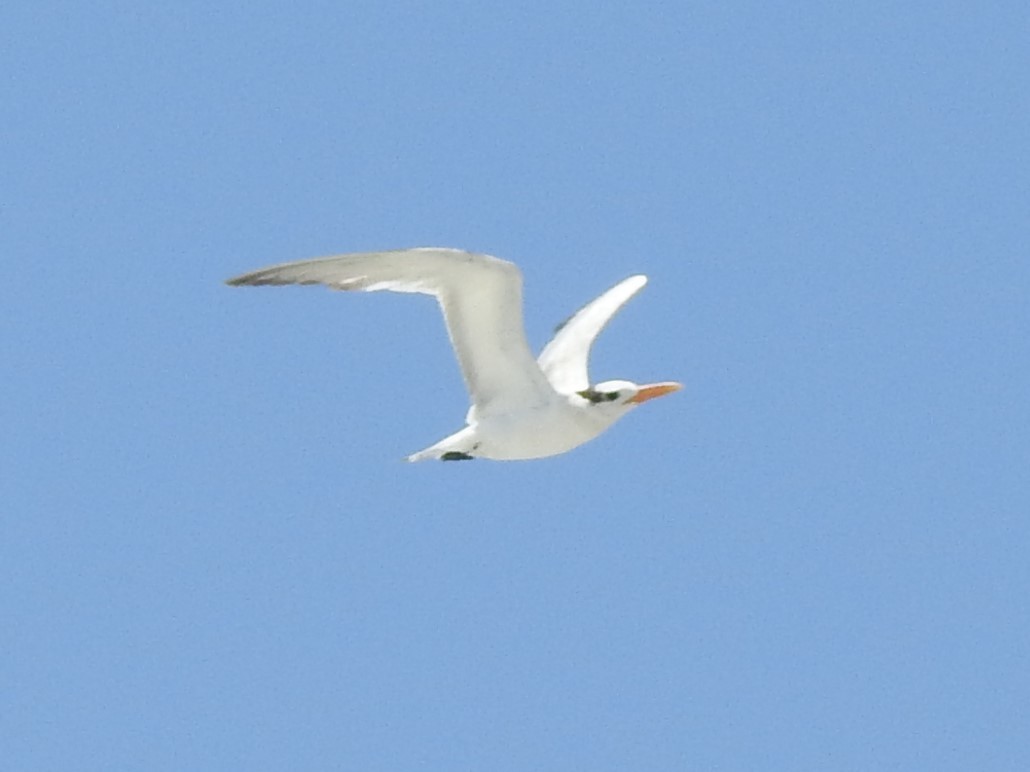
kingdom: Animalia
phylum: Chordata
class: Aves
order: Charadriiformes
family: Laridae
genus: Thalasseus
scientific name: Thalasseus maximus
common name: Royal tern
